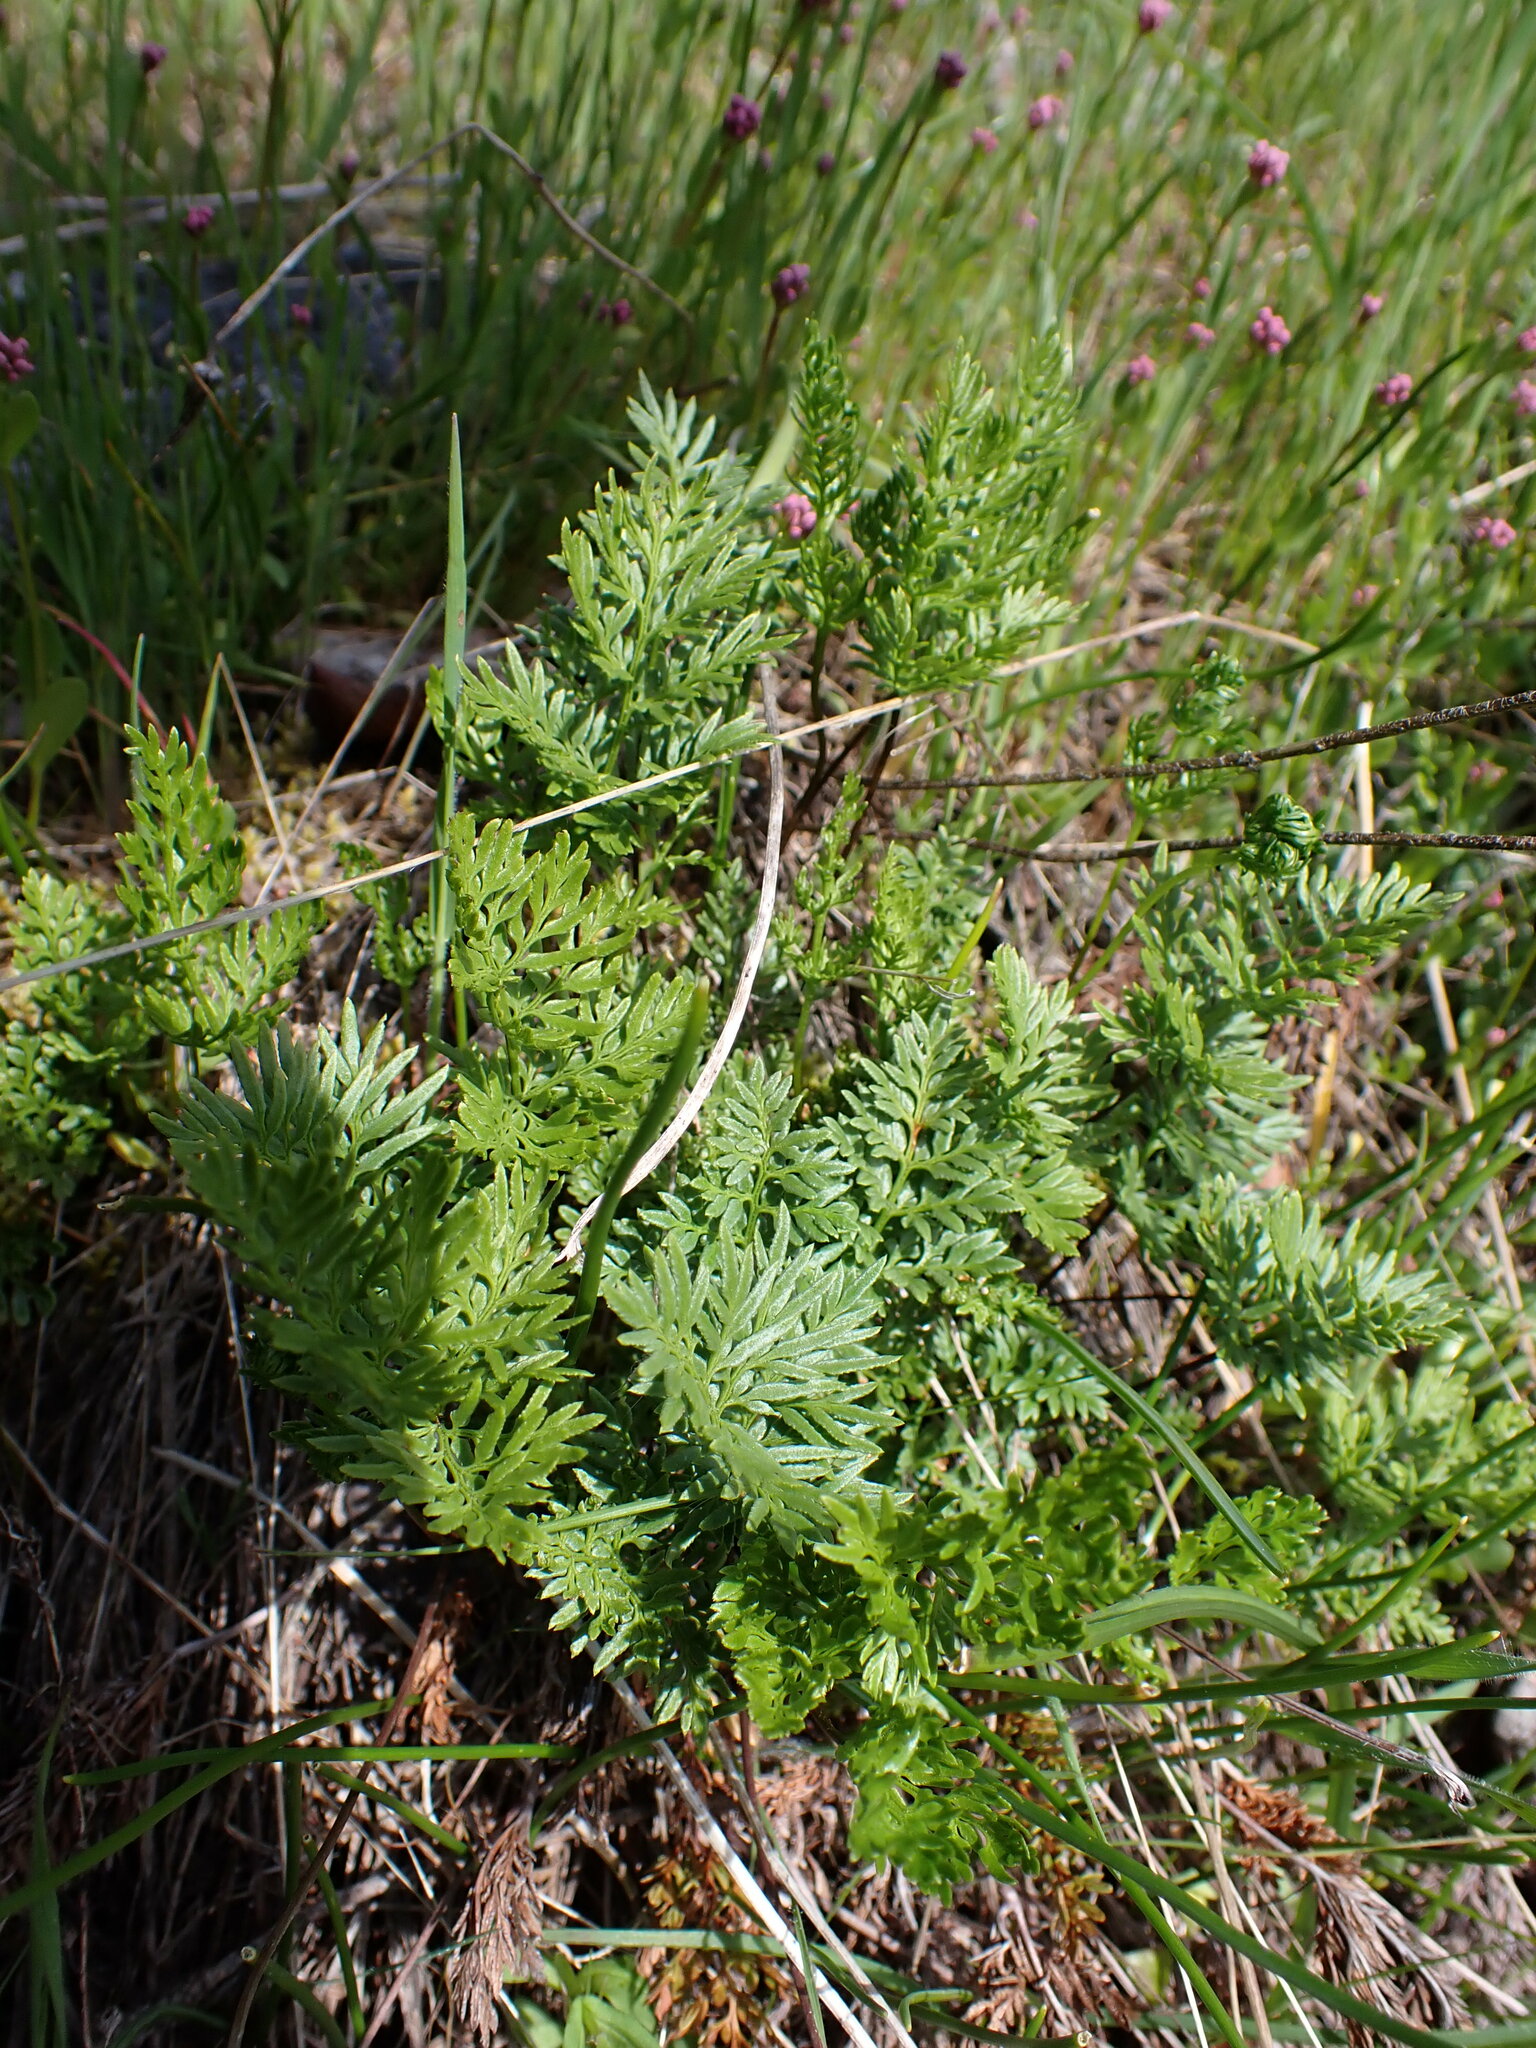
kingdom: Plantae
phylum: Tracheophyta
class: Polypodiopsida
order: Polypodiales
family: Pteridaceae
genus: Aspidotis
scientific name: Aspidotis densa
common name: Indian's dream
